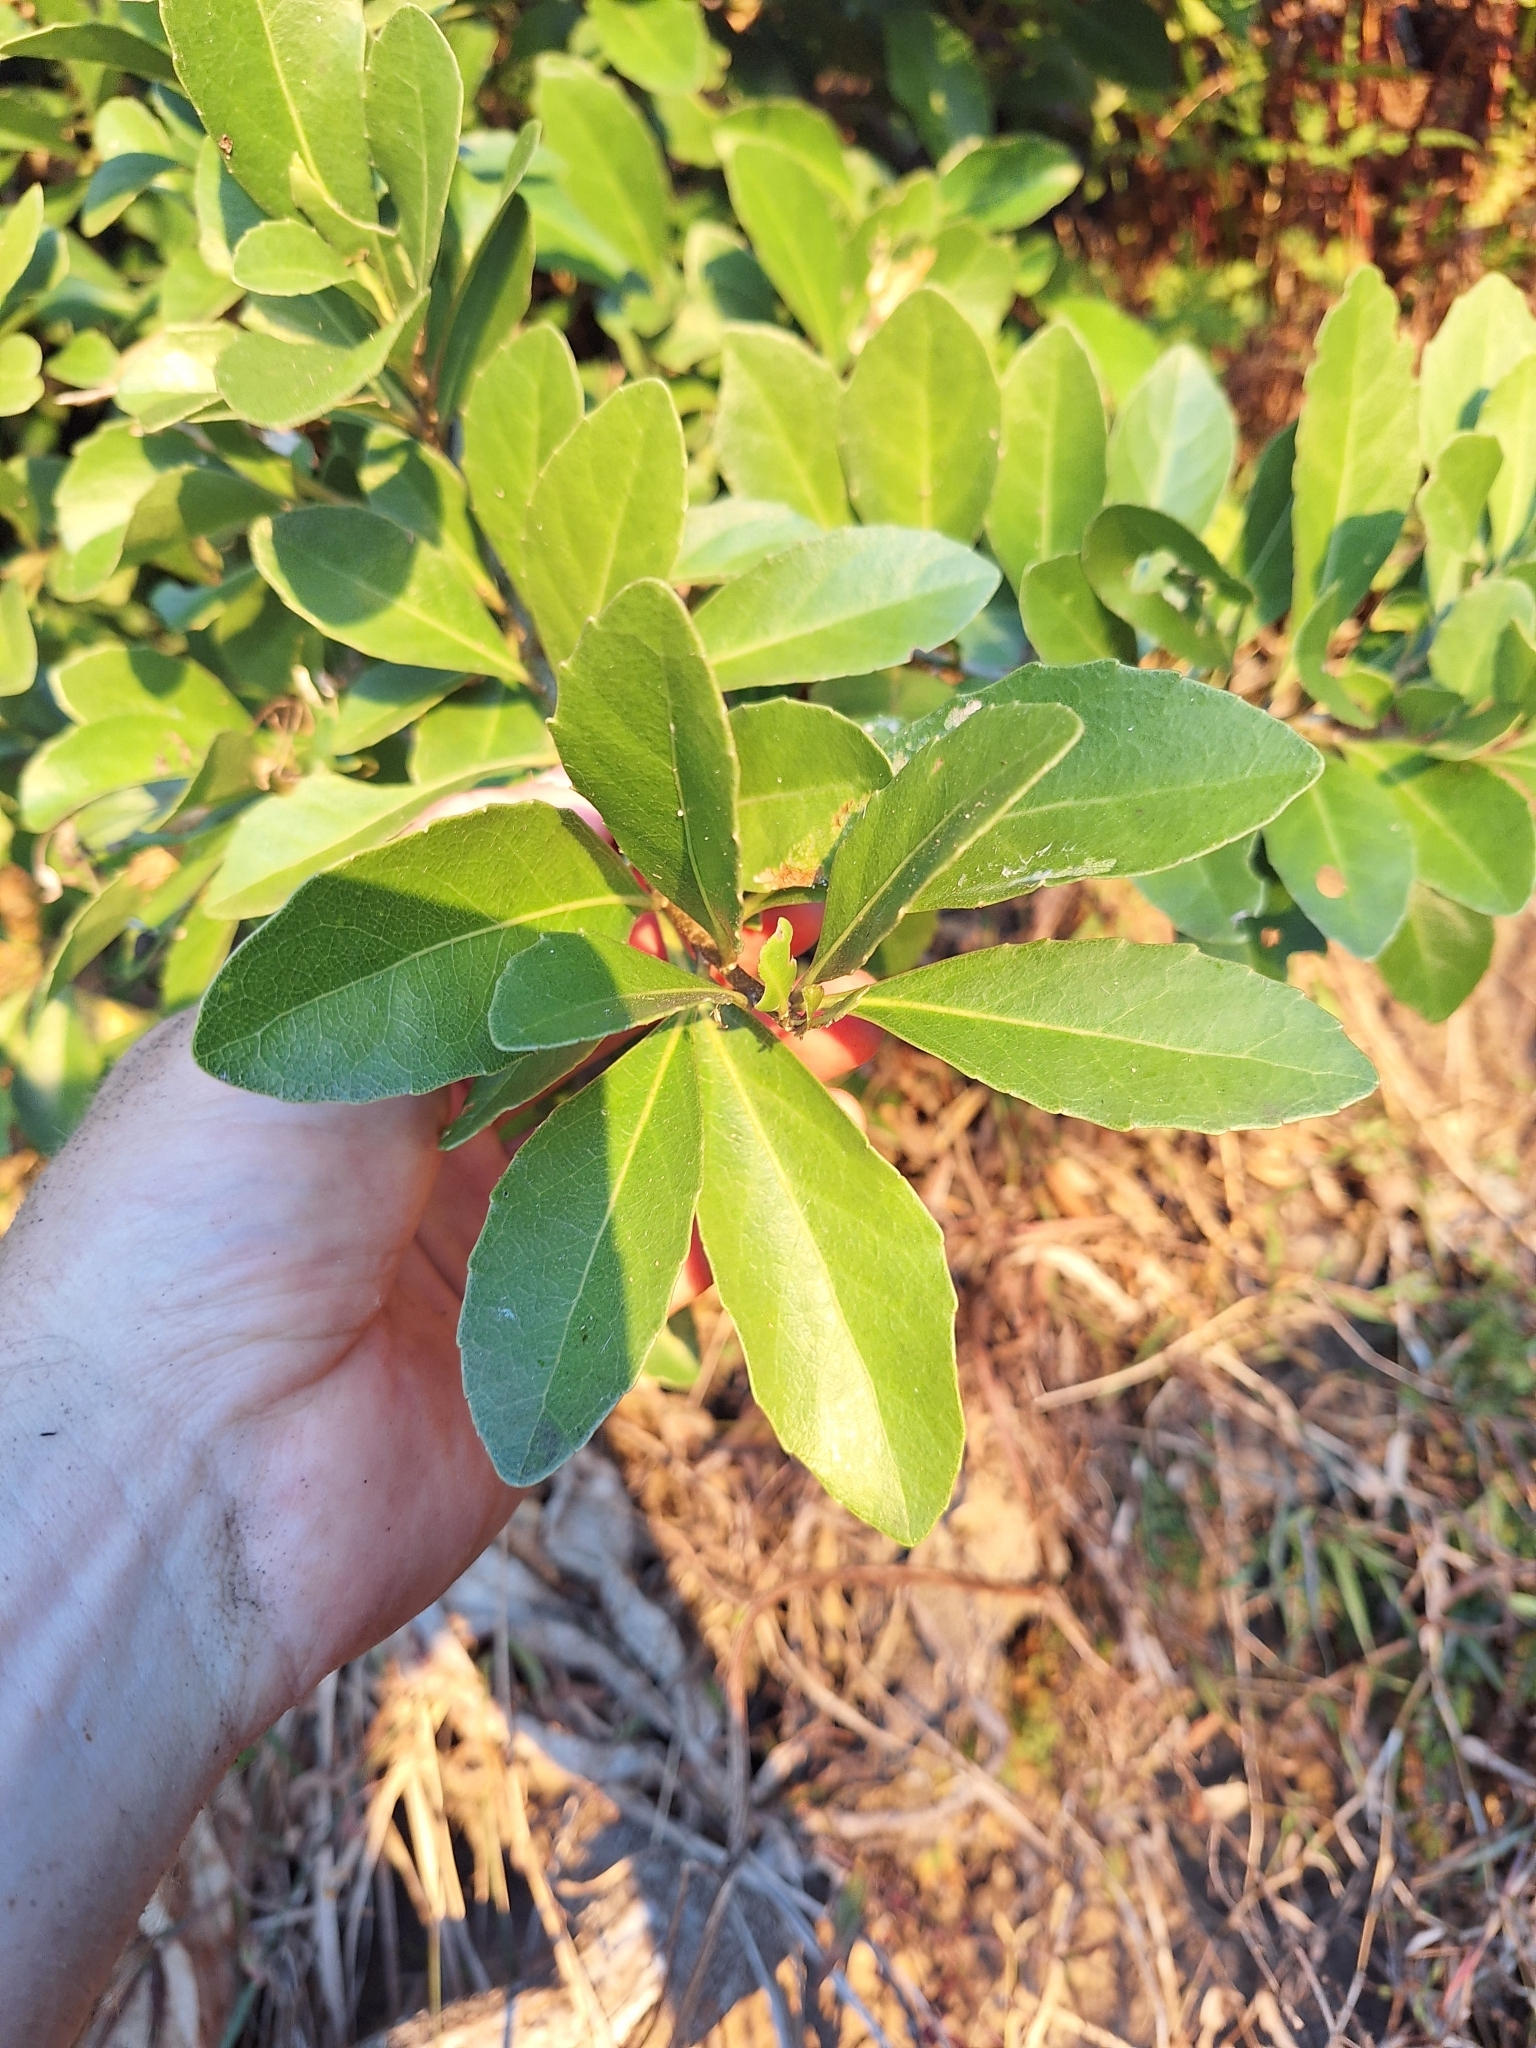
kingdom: Plantae
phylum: Tracheophyta
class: Magnoliopsida
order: Malpighiales
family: Violaceae
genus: Melicytus
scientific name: Melicytus novae-zelandiae
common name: Coastal mahoe
